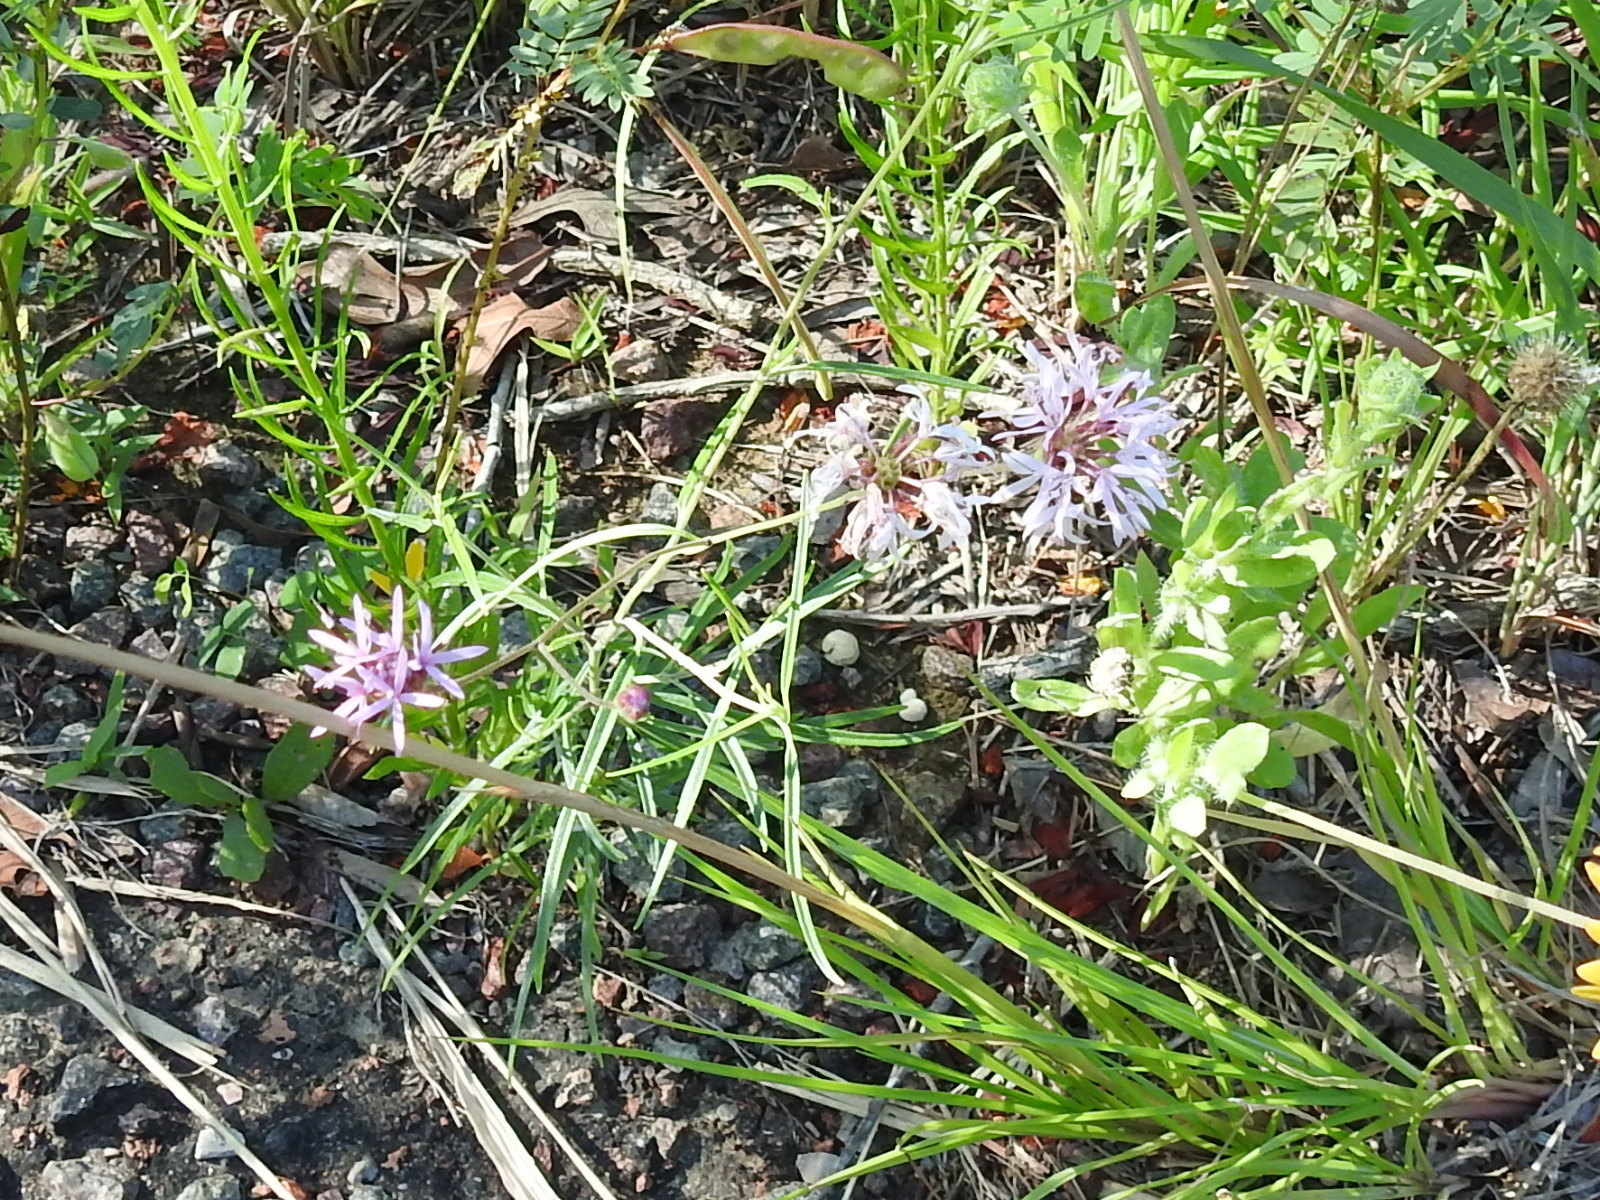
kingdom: Plantae
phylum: Tracheophyta
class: Magnoliopsida
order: Asterales
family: Asteraceae
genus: Palafoxia
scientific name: Palafoxia rosea
